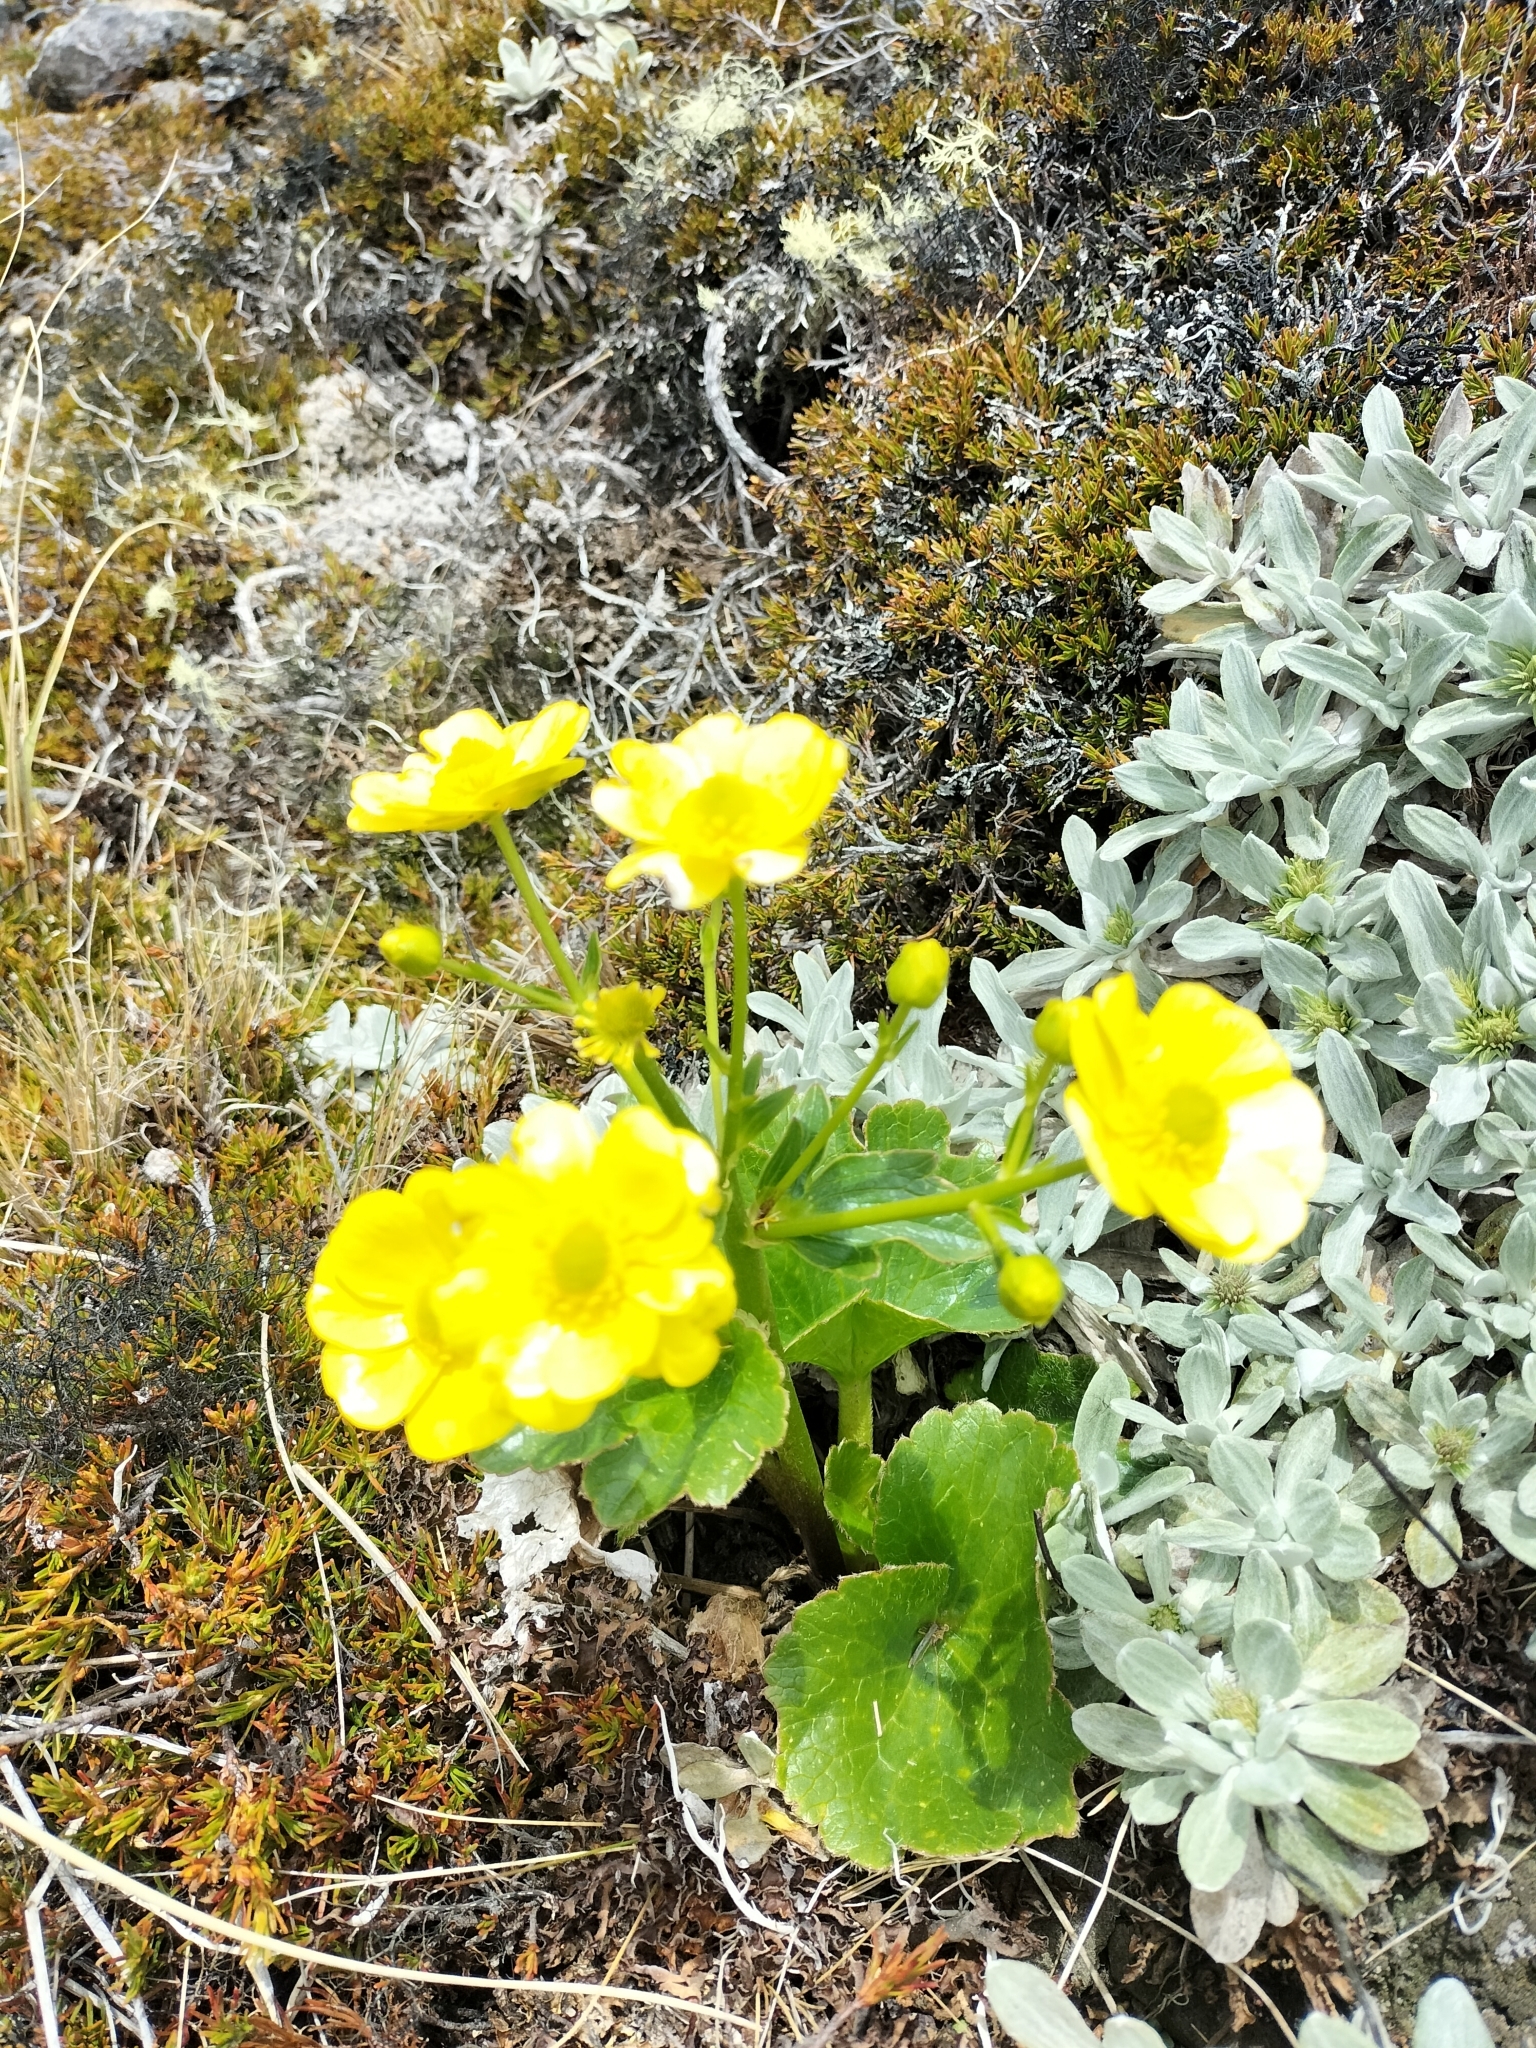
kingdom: Plantae
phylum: Tracheophyta
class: Magnoliopsida
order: Ranunculales
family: Ranunculaceae
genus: Ranunculus
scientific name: Ranunculus insignis
